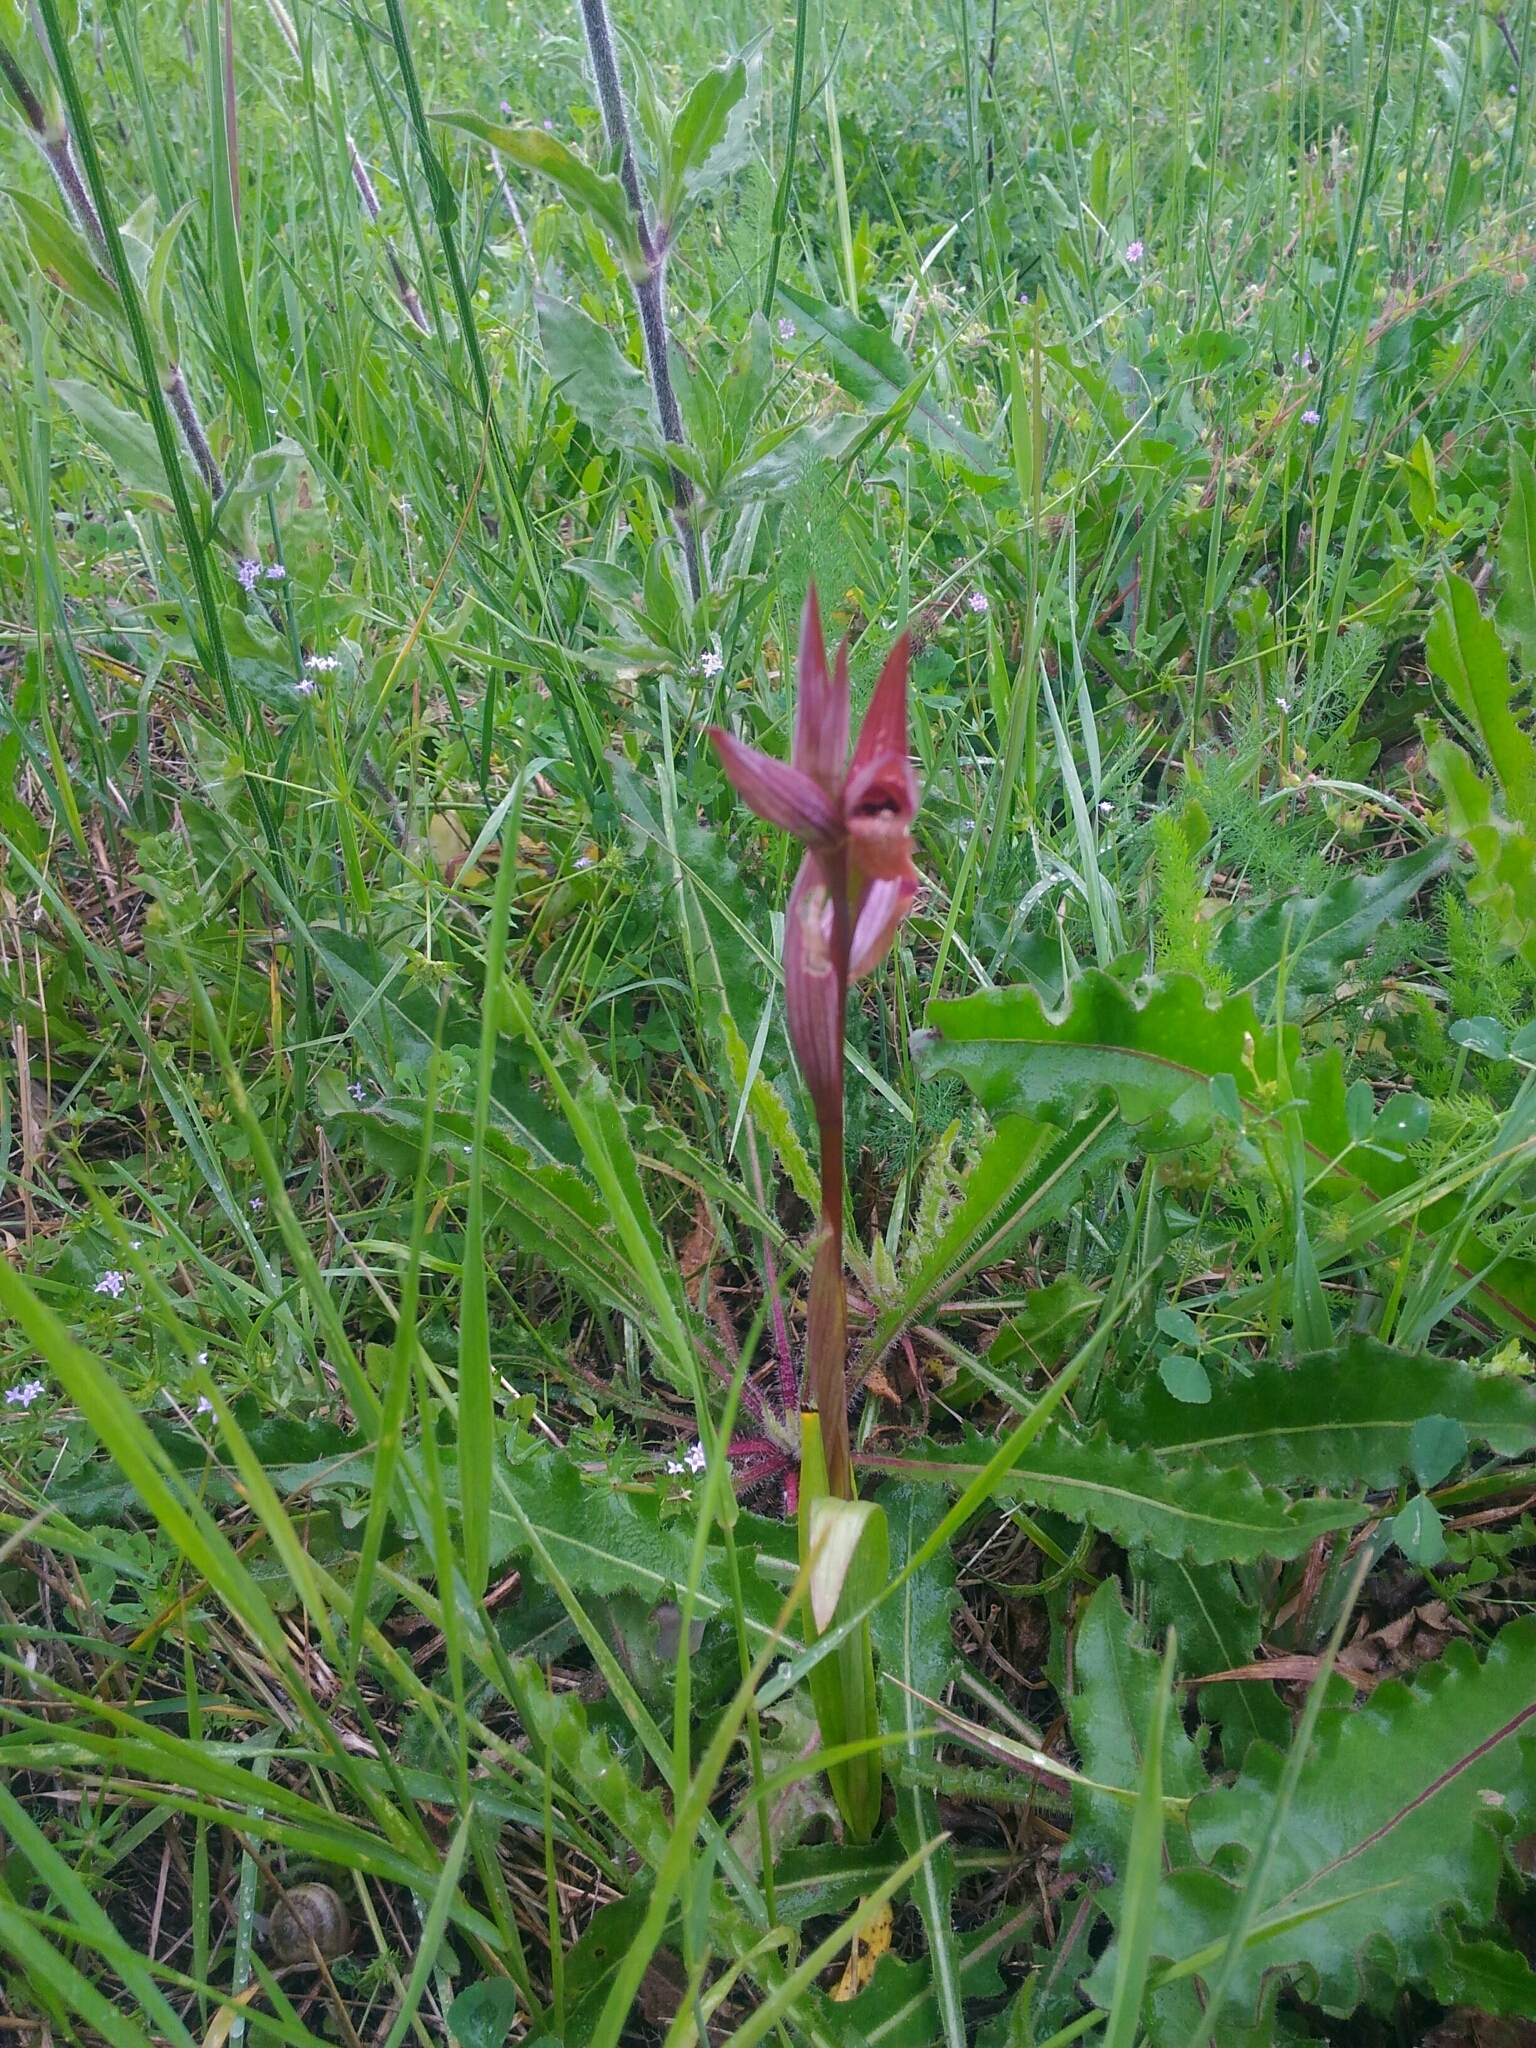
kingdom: Plantae
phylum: Tracheophyta
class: Liliopsida
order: Asparagales
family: Orchidaceae
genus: Serapias
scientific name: Serapias vomeracea
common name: Long-lipped tongue-orchid
